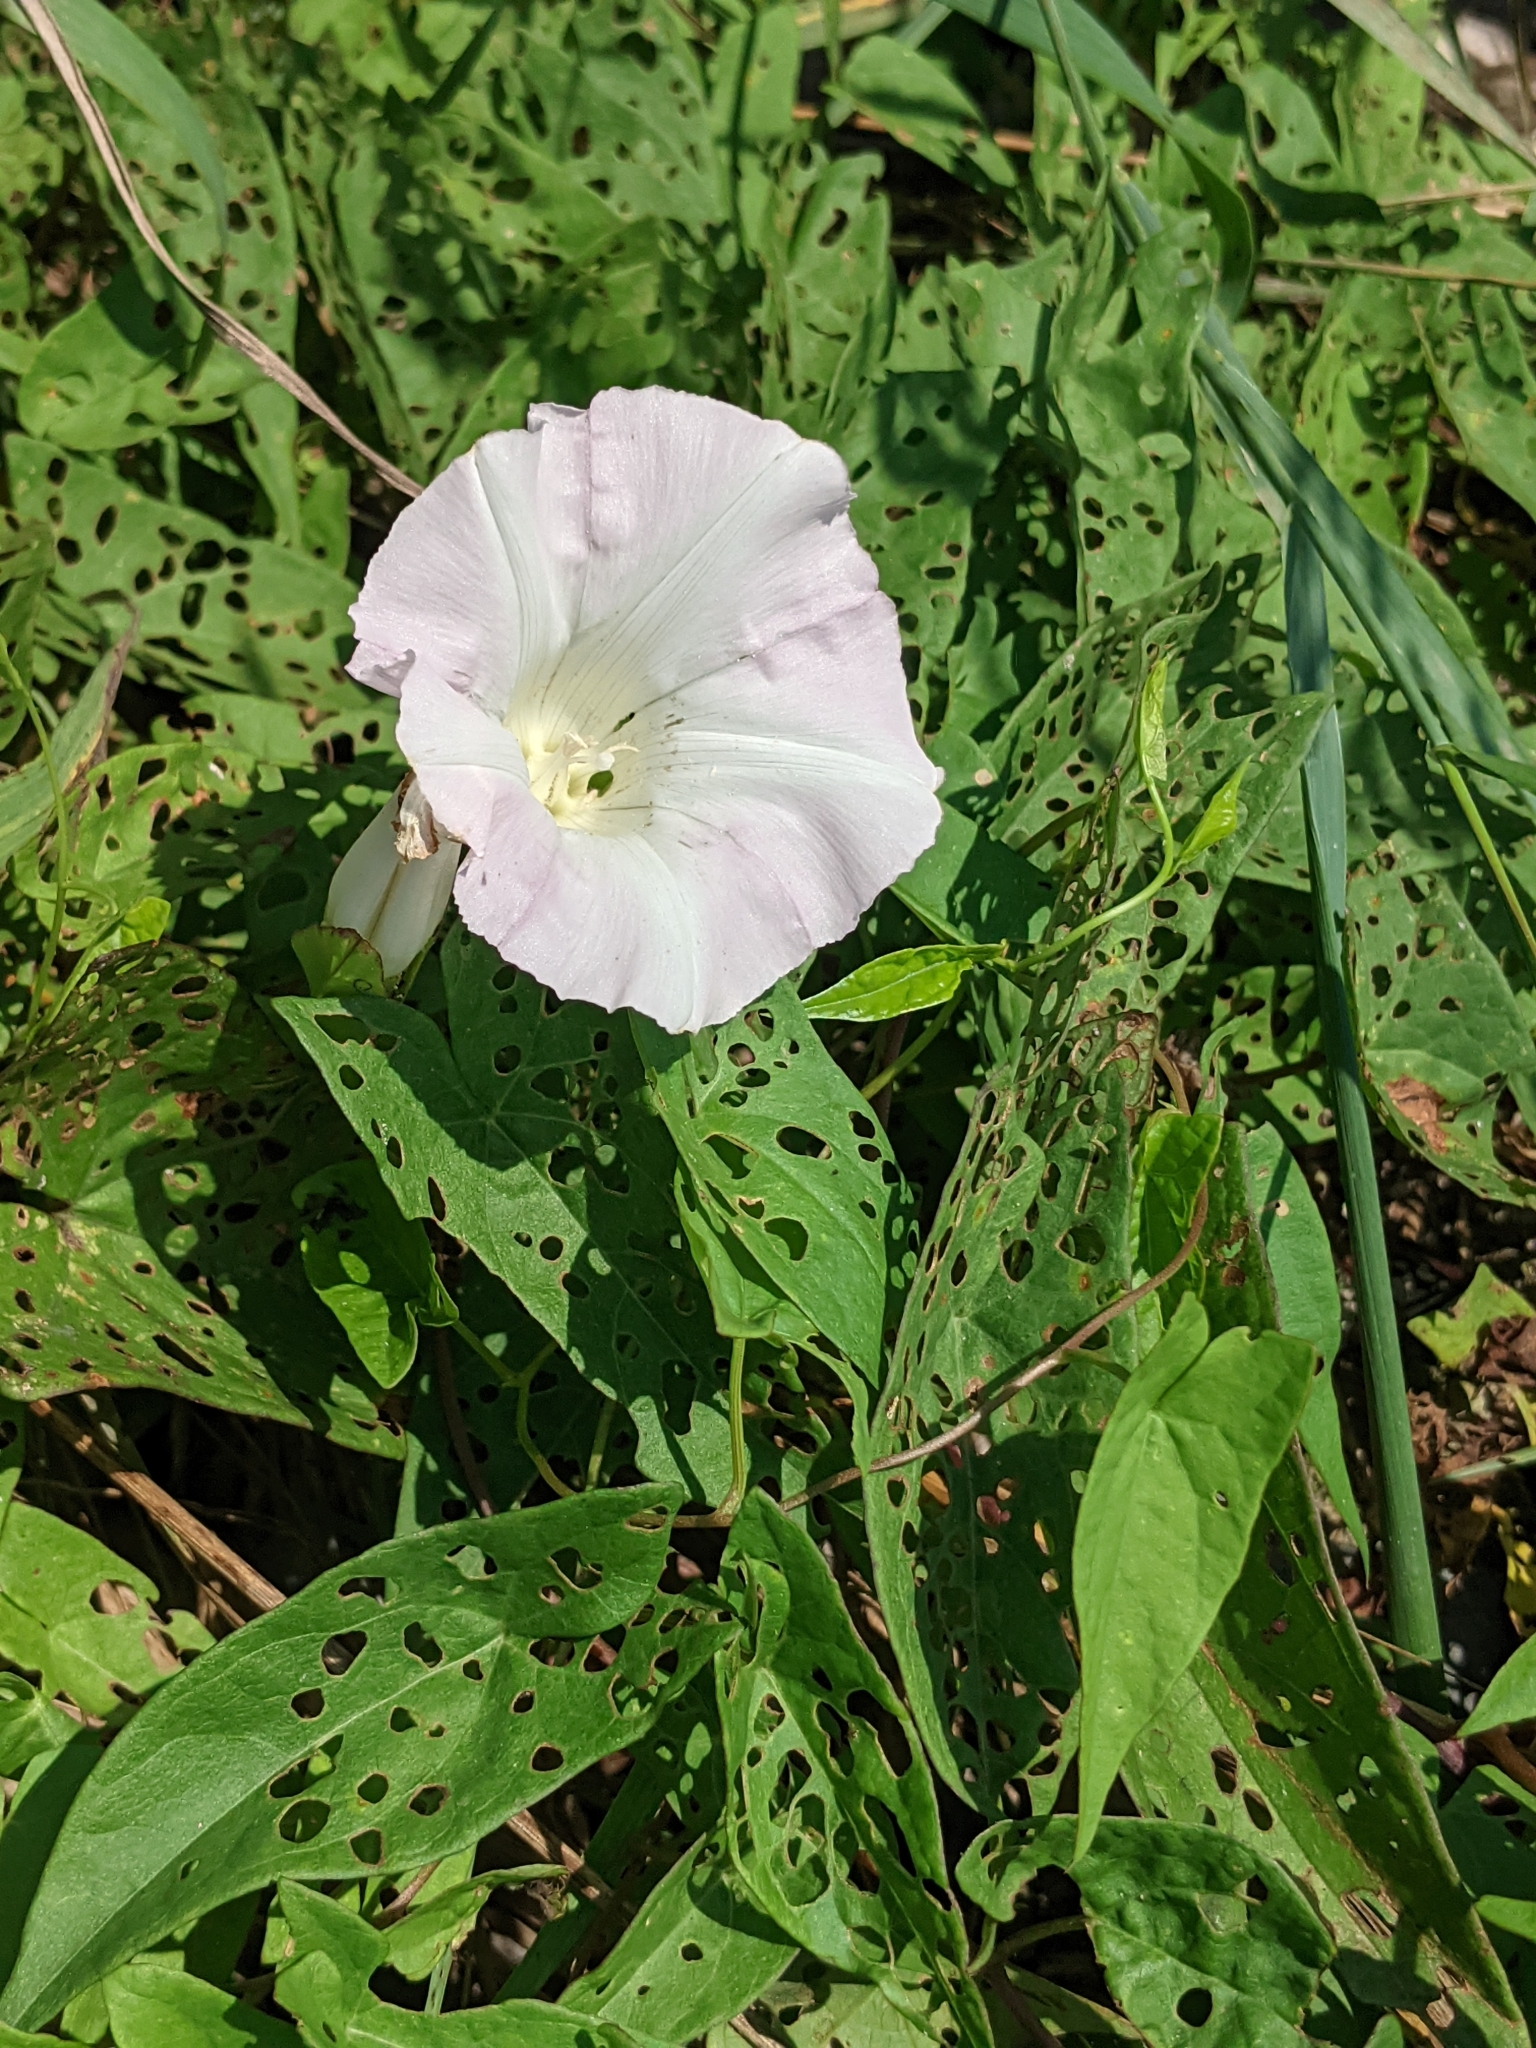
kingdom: Plantae
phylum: Tracheophyta
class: Magnoliopsida
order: Solanales
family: Convolvulaceae
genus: Calystegia
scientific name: Calystegia sepium
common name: Hedge bindweed
